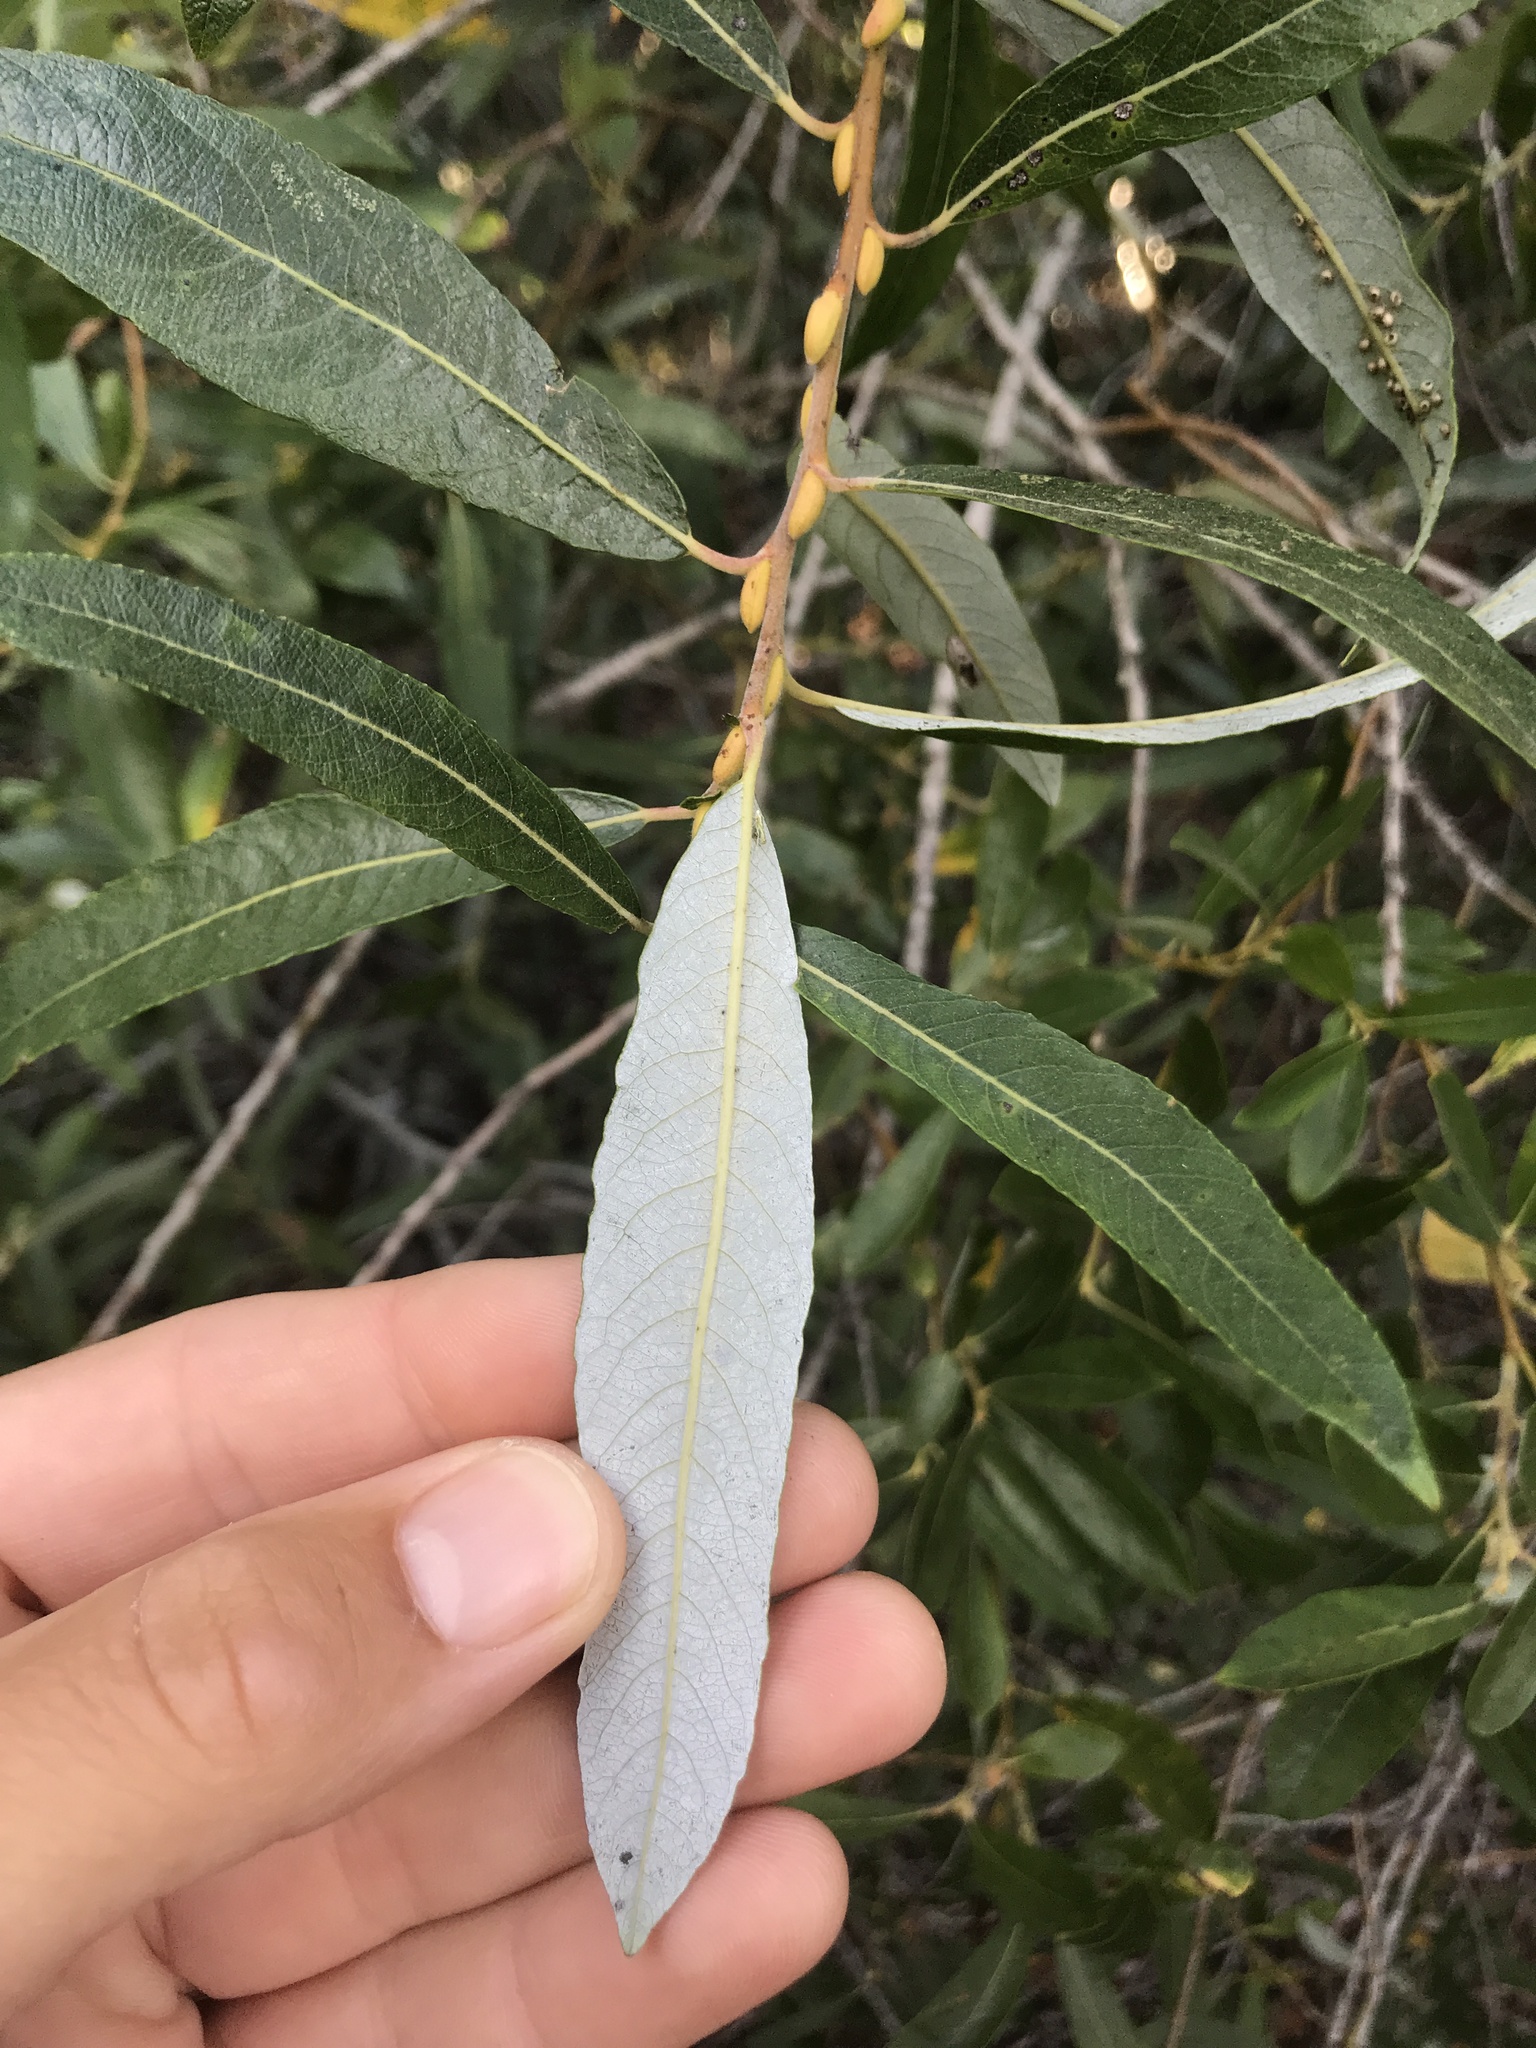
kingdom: Plantae
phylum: Tracheophyta
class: Magnoliopsida
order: Malpighiales
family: Salicaceae
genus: Salix
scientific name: Salix lasiolepis
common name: Arroyo willow
